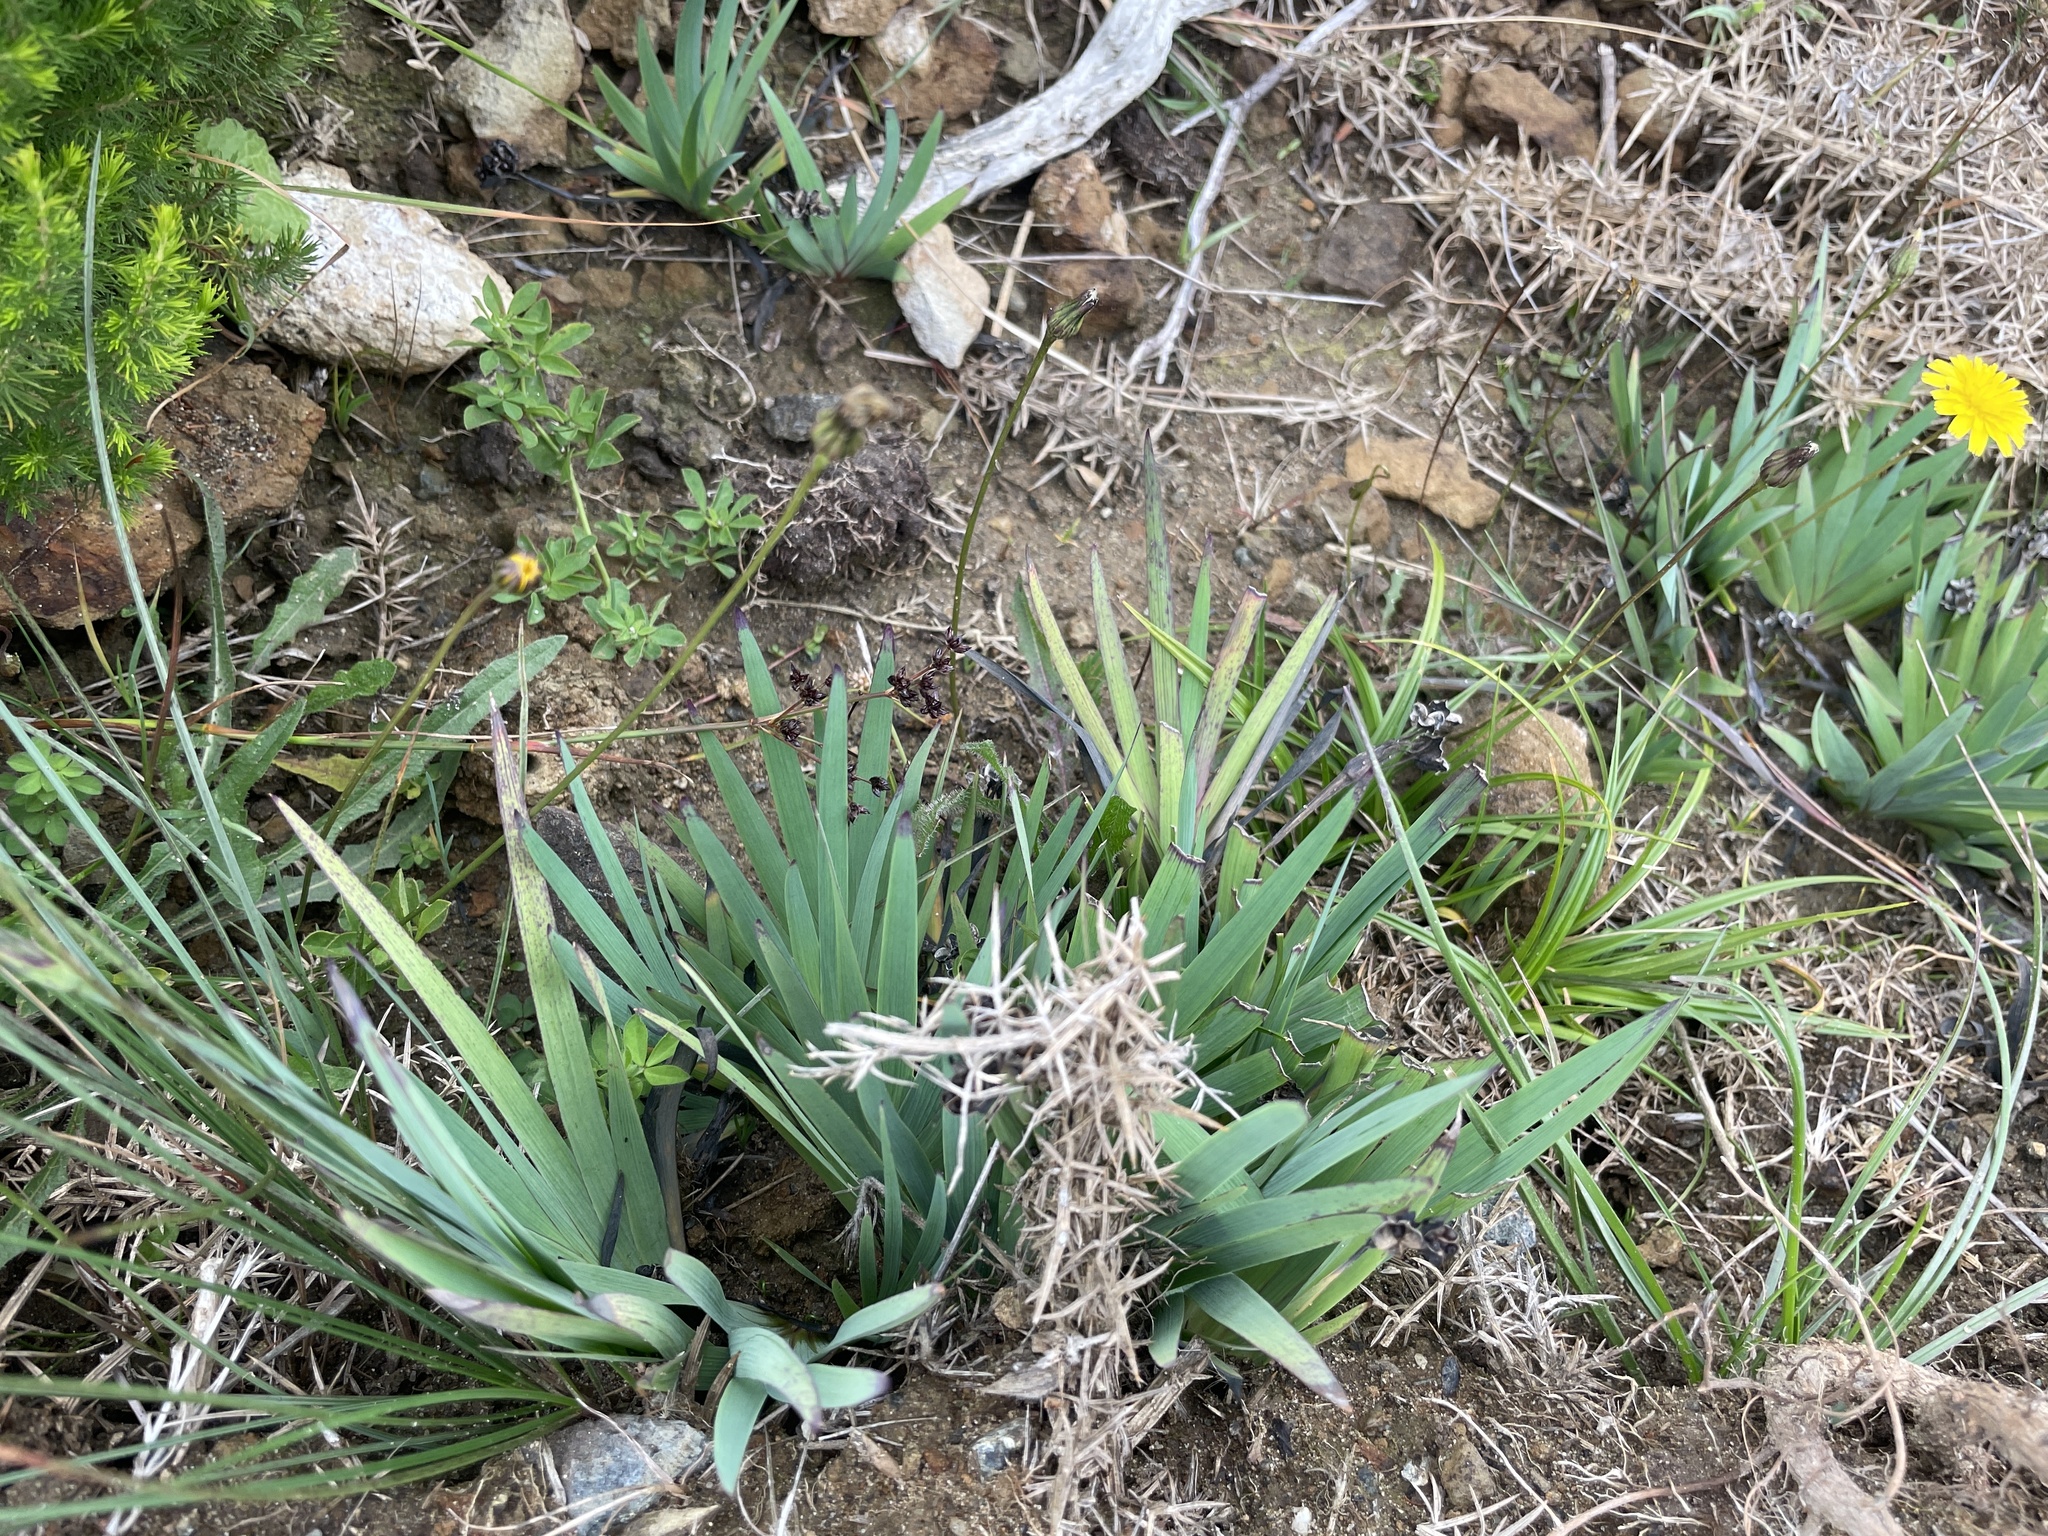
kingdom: Plantae
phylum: Tracheophyta
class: Liliopsida
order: Asparagales
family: Iridaceae
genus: Sisyrinchium
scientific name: Sisyrinchium californicum
